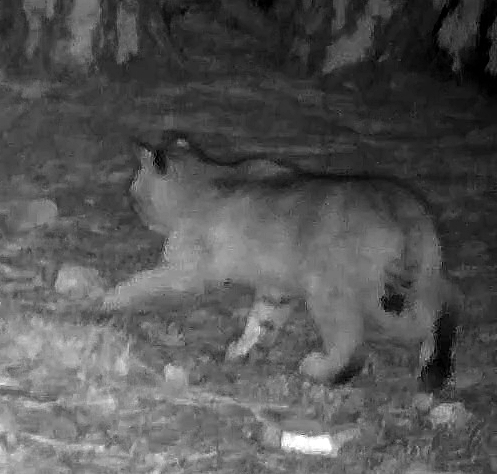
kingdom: Animalia
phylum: Chordata
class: Mammalia
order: Carnivora
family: Felidae
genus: Lynx
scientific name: Lynx rufus
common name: Bobcat
